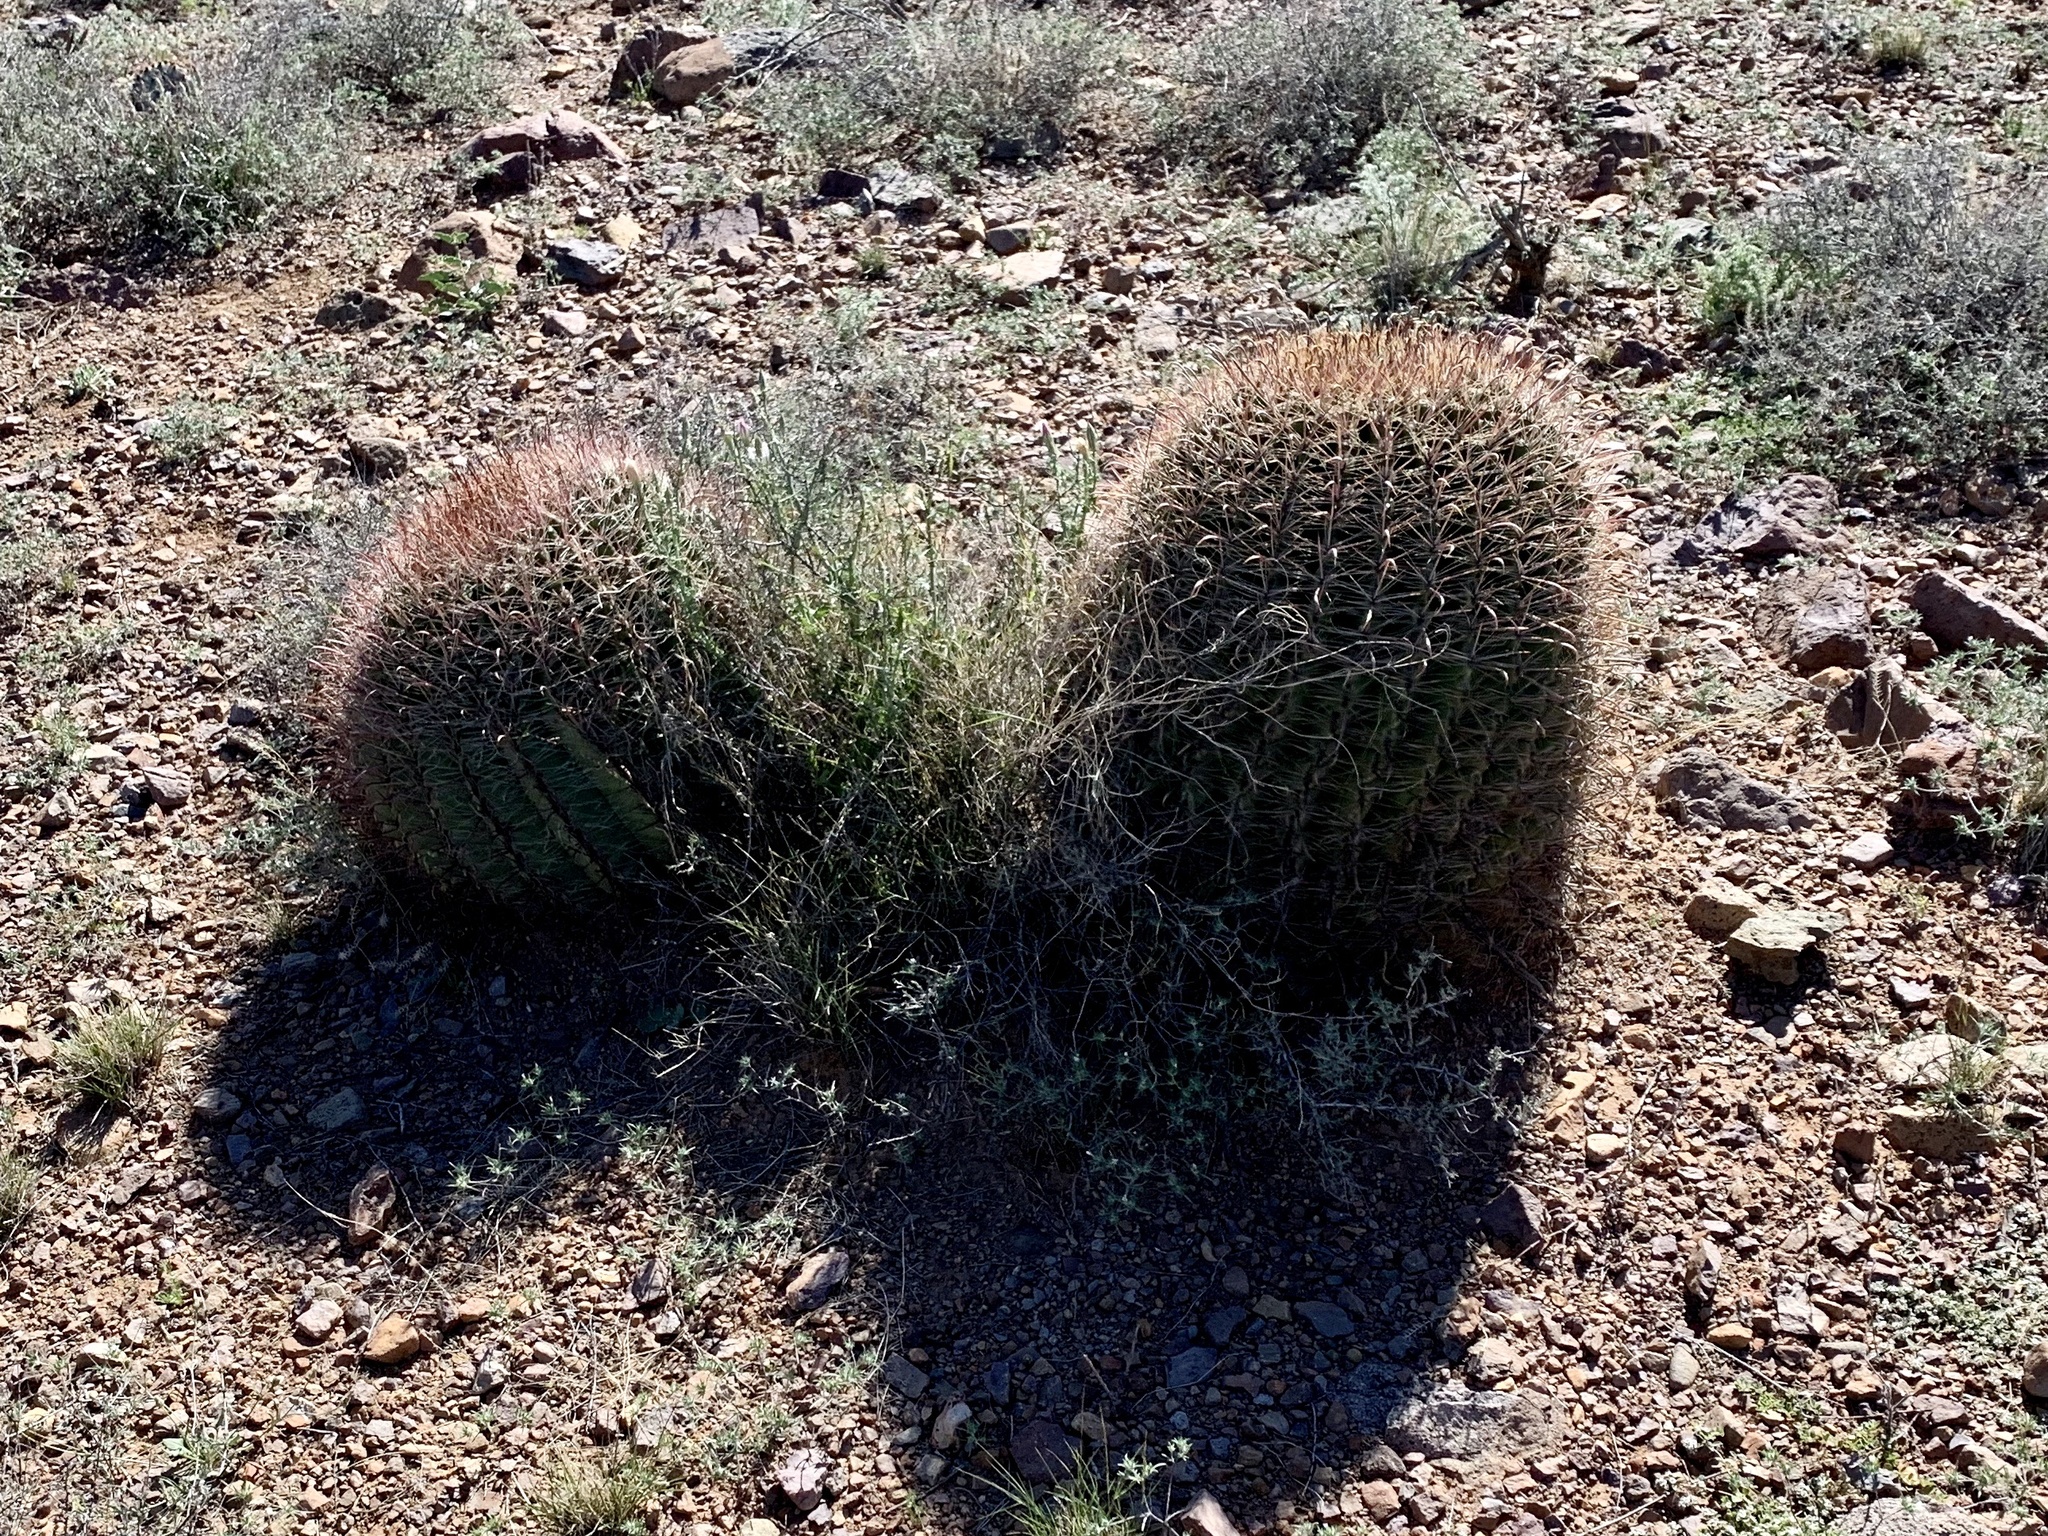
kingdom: Plantae
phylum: Tracheophyta
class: Magnoliopsida
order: Caryophyllales
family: Cactaceae
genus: Ferocactus
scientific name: Ferocactus wislizeni
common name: Candy barrel cactus
